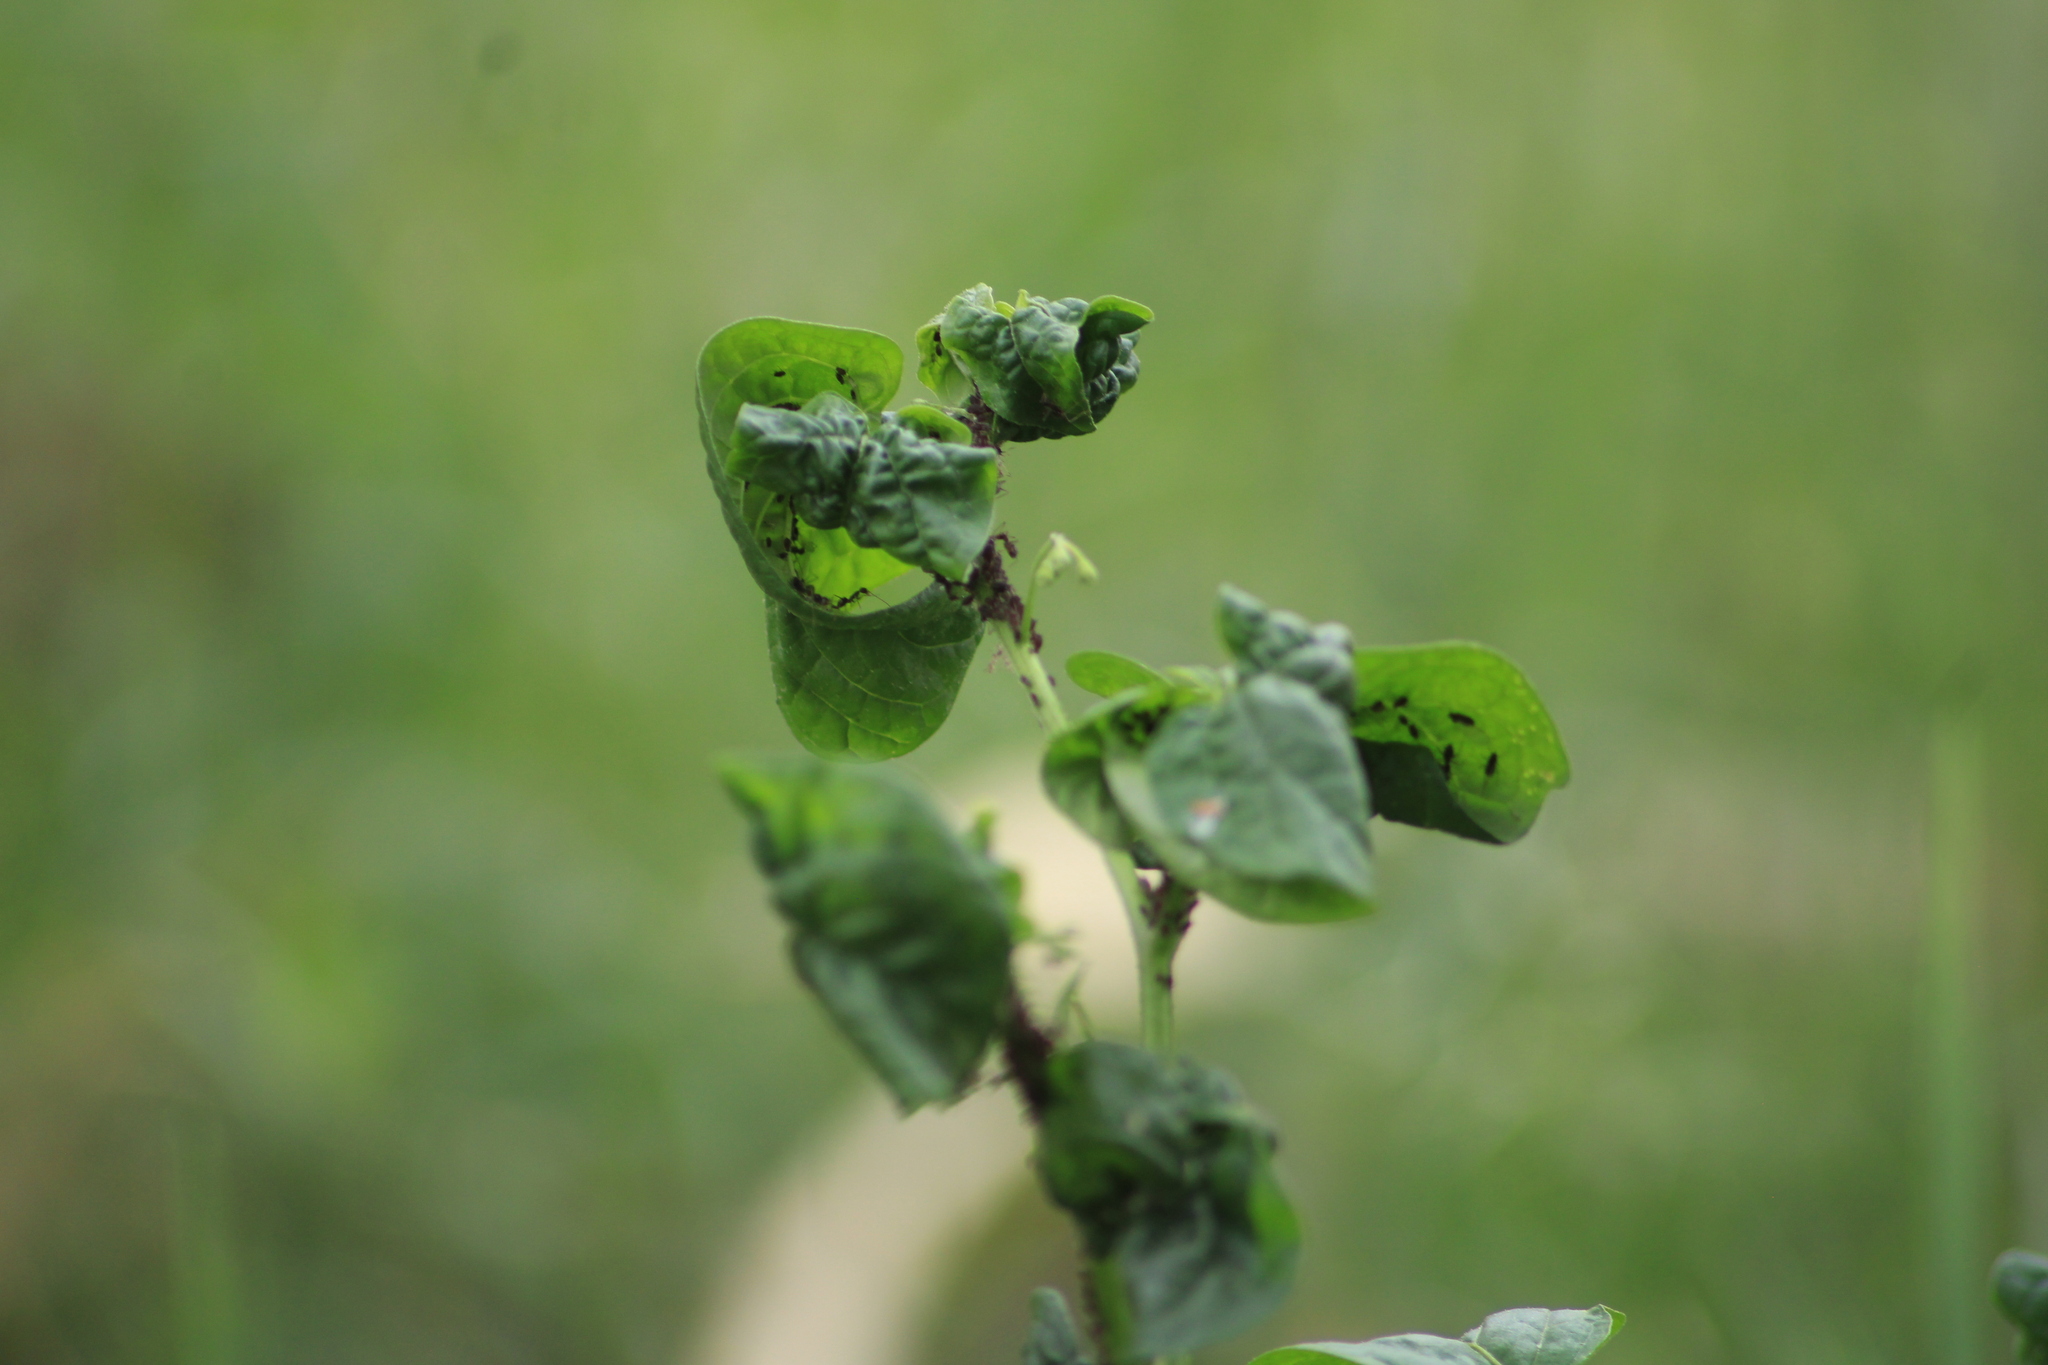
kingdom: Plantae
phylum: Tracheophyta
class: Magnoliopsida
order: Solanales
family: Solanaceae
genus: Solanum
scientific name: Solanum americanum
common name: American black nightshade
